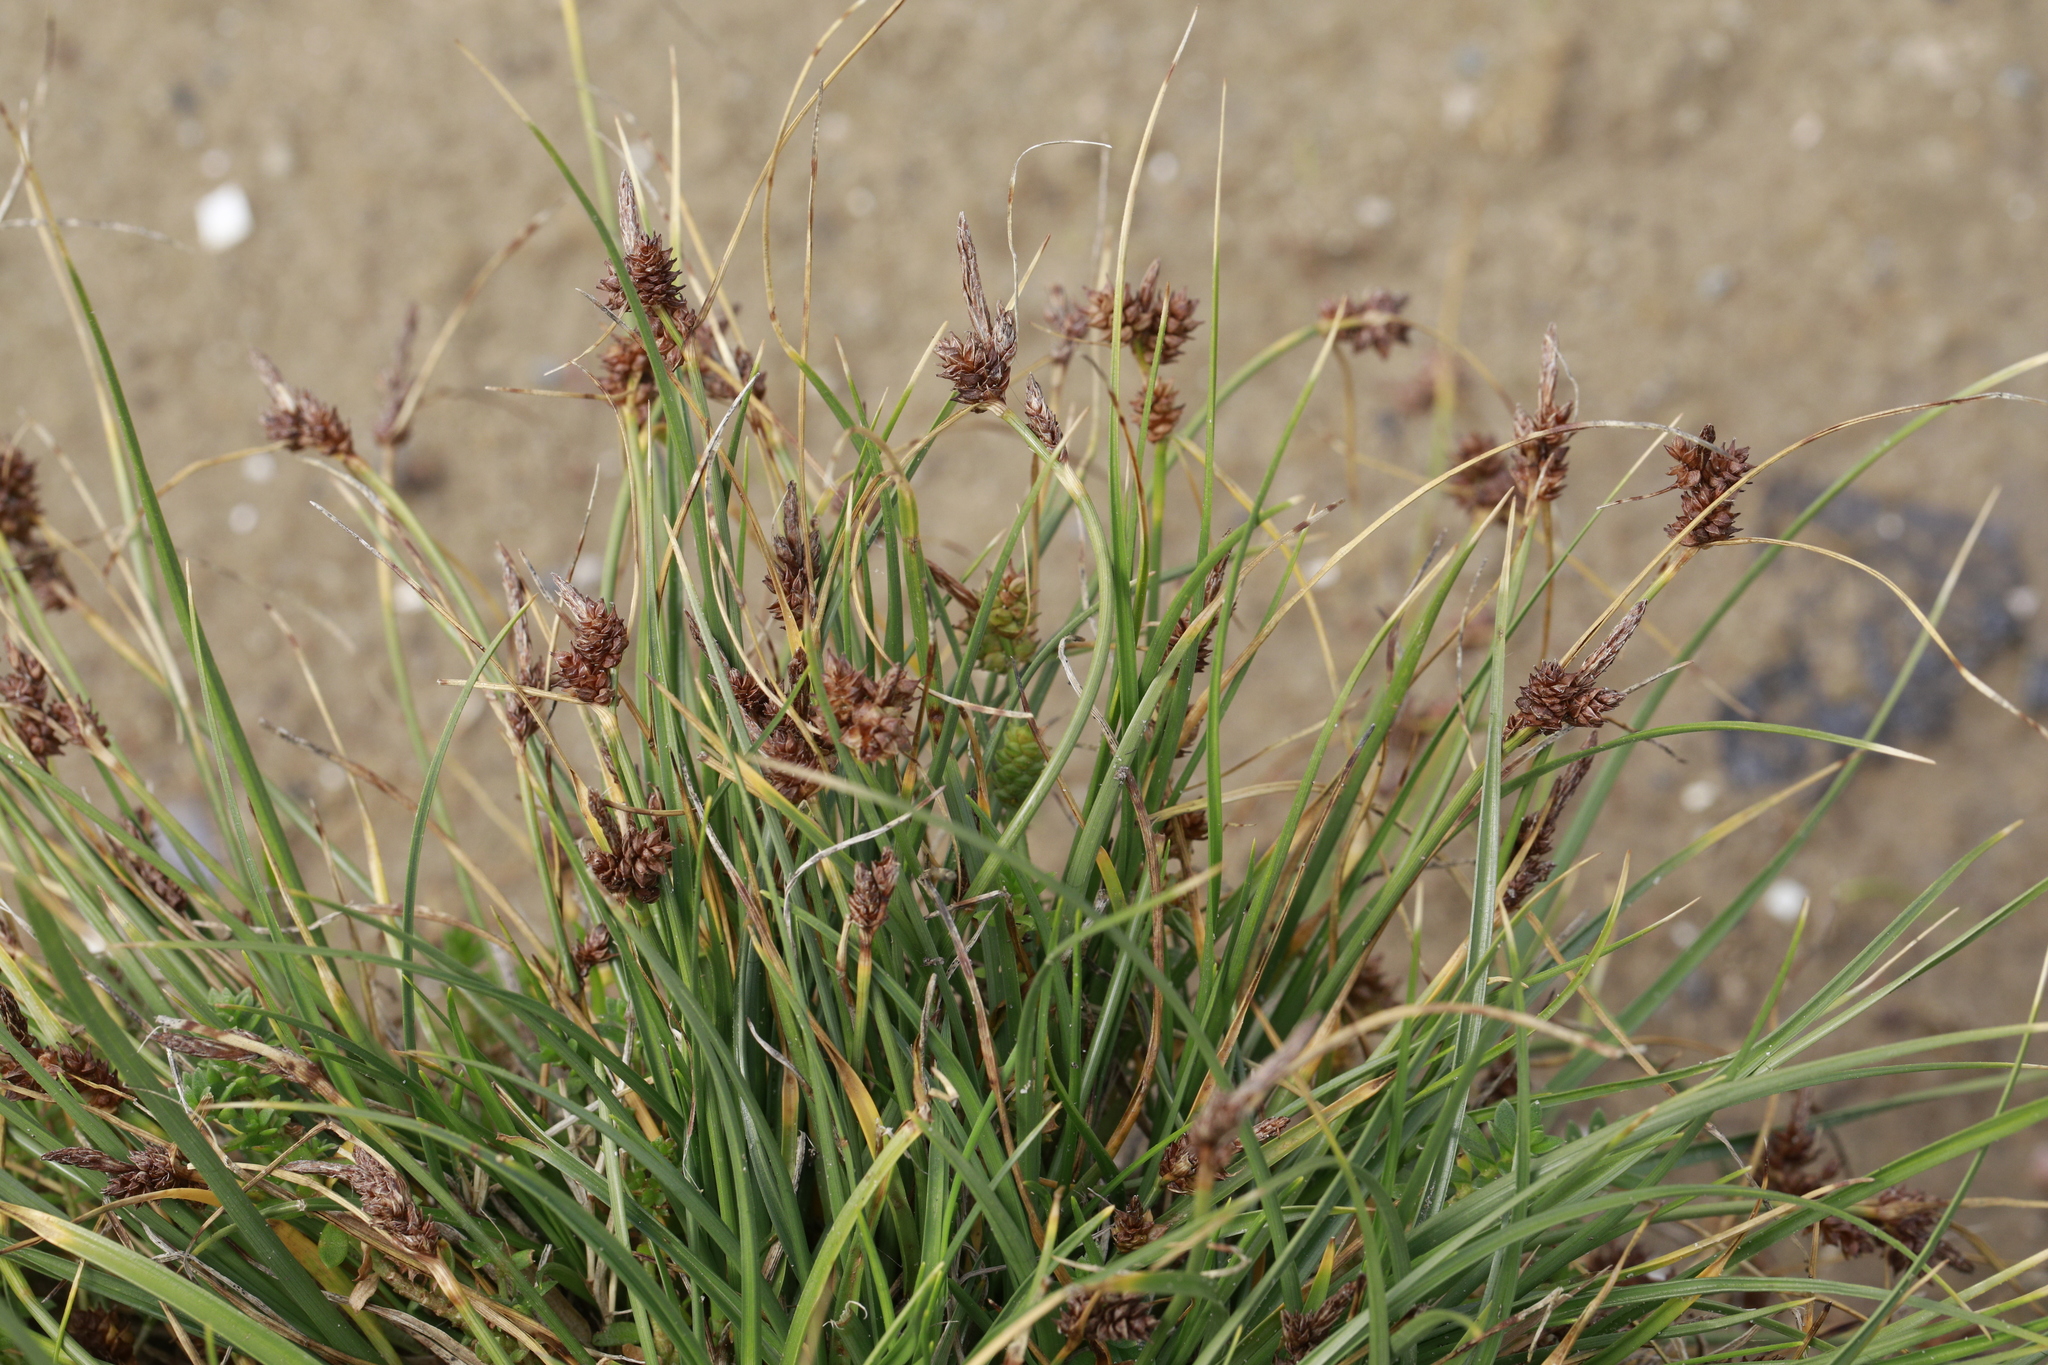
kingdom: Plantae
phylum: Tracheophyta
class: Liliopsida
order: Poales
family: Cyperaceae
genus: Carex
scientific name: Carex extensa
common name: Long-bracted sedge
